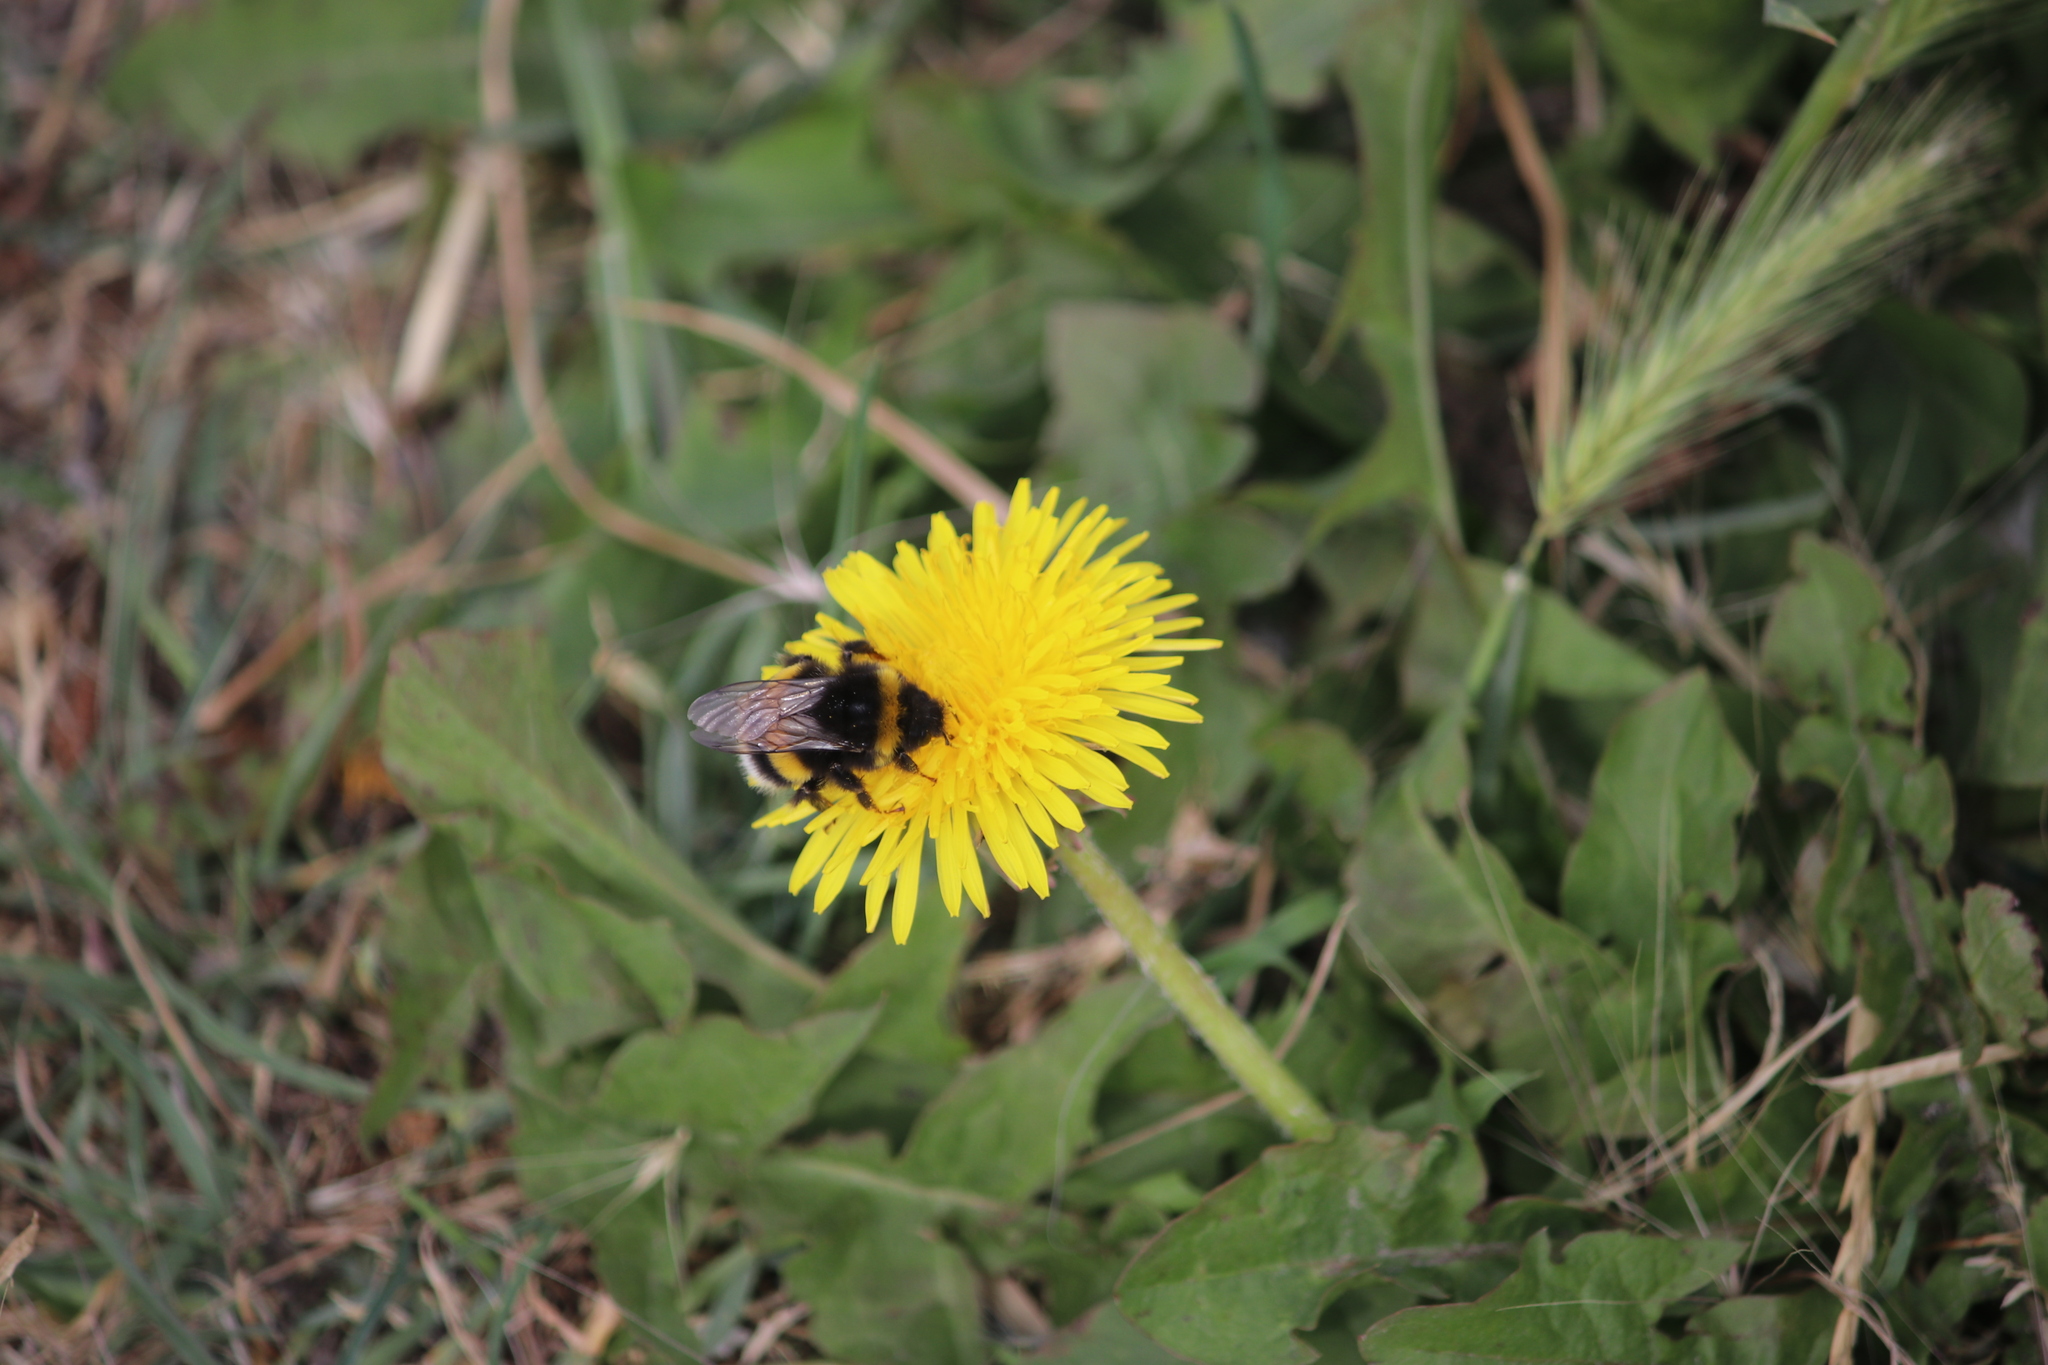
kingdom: Animalia
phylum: Arthropoda
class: Insecta
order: Hymenoptera
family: Apidae
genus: Bombus
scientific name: Bombus terrestris
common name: Buff-tailed bumblebee
